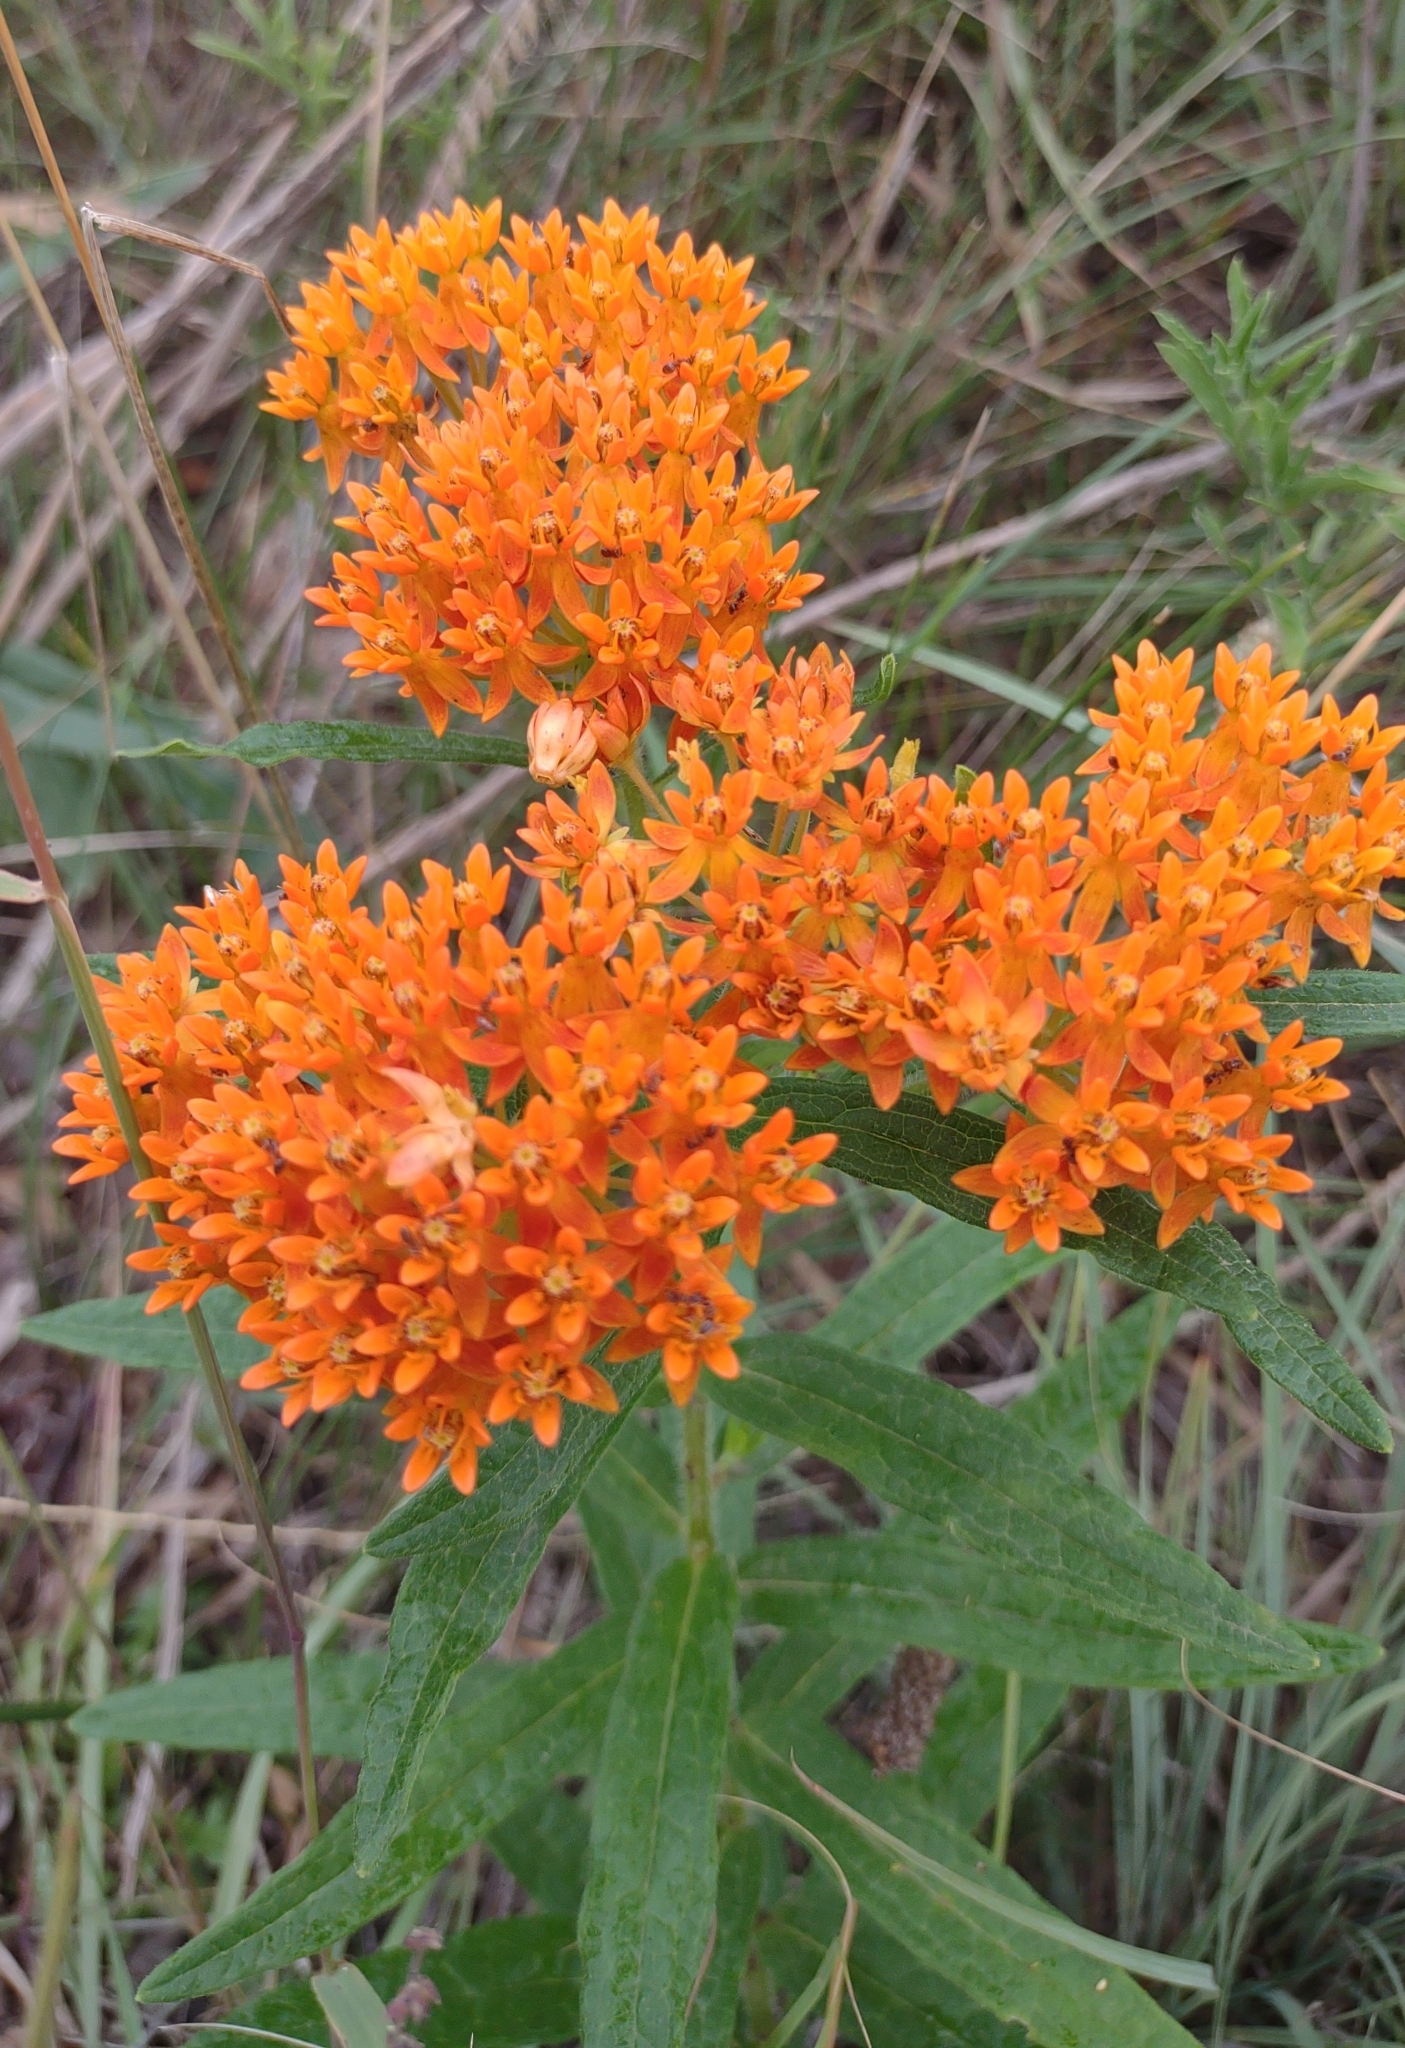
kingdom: Plantae
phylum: Tracheophyta
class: Magnoliopsida
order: Gentianales
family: Apocynaceae
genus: Asclepias
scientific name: Asclepias tuberosa
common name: Butterfly milkweed
